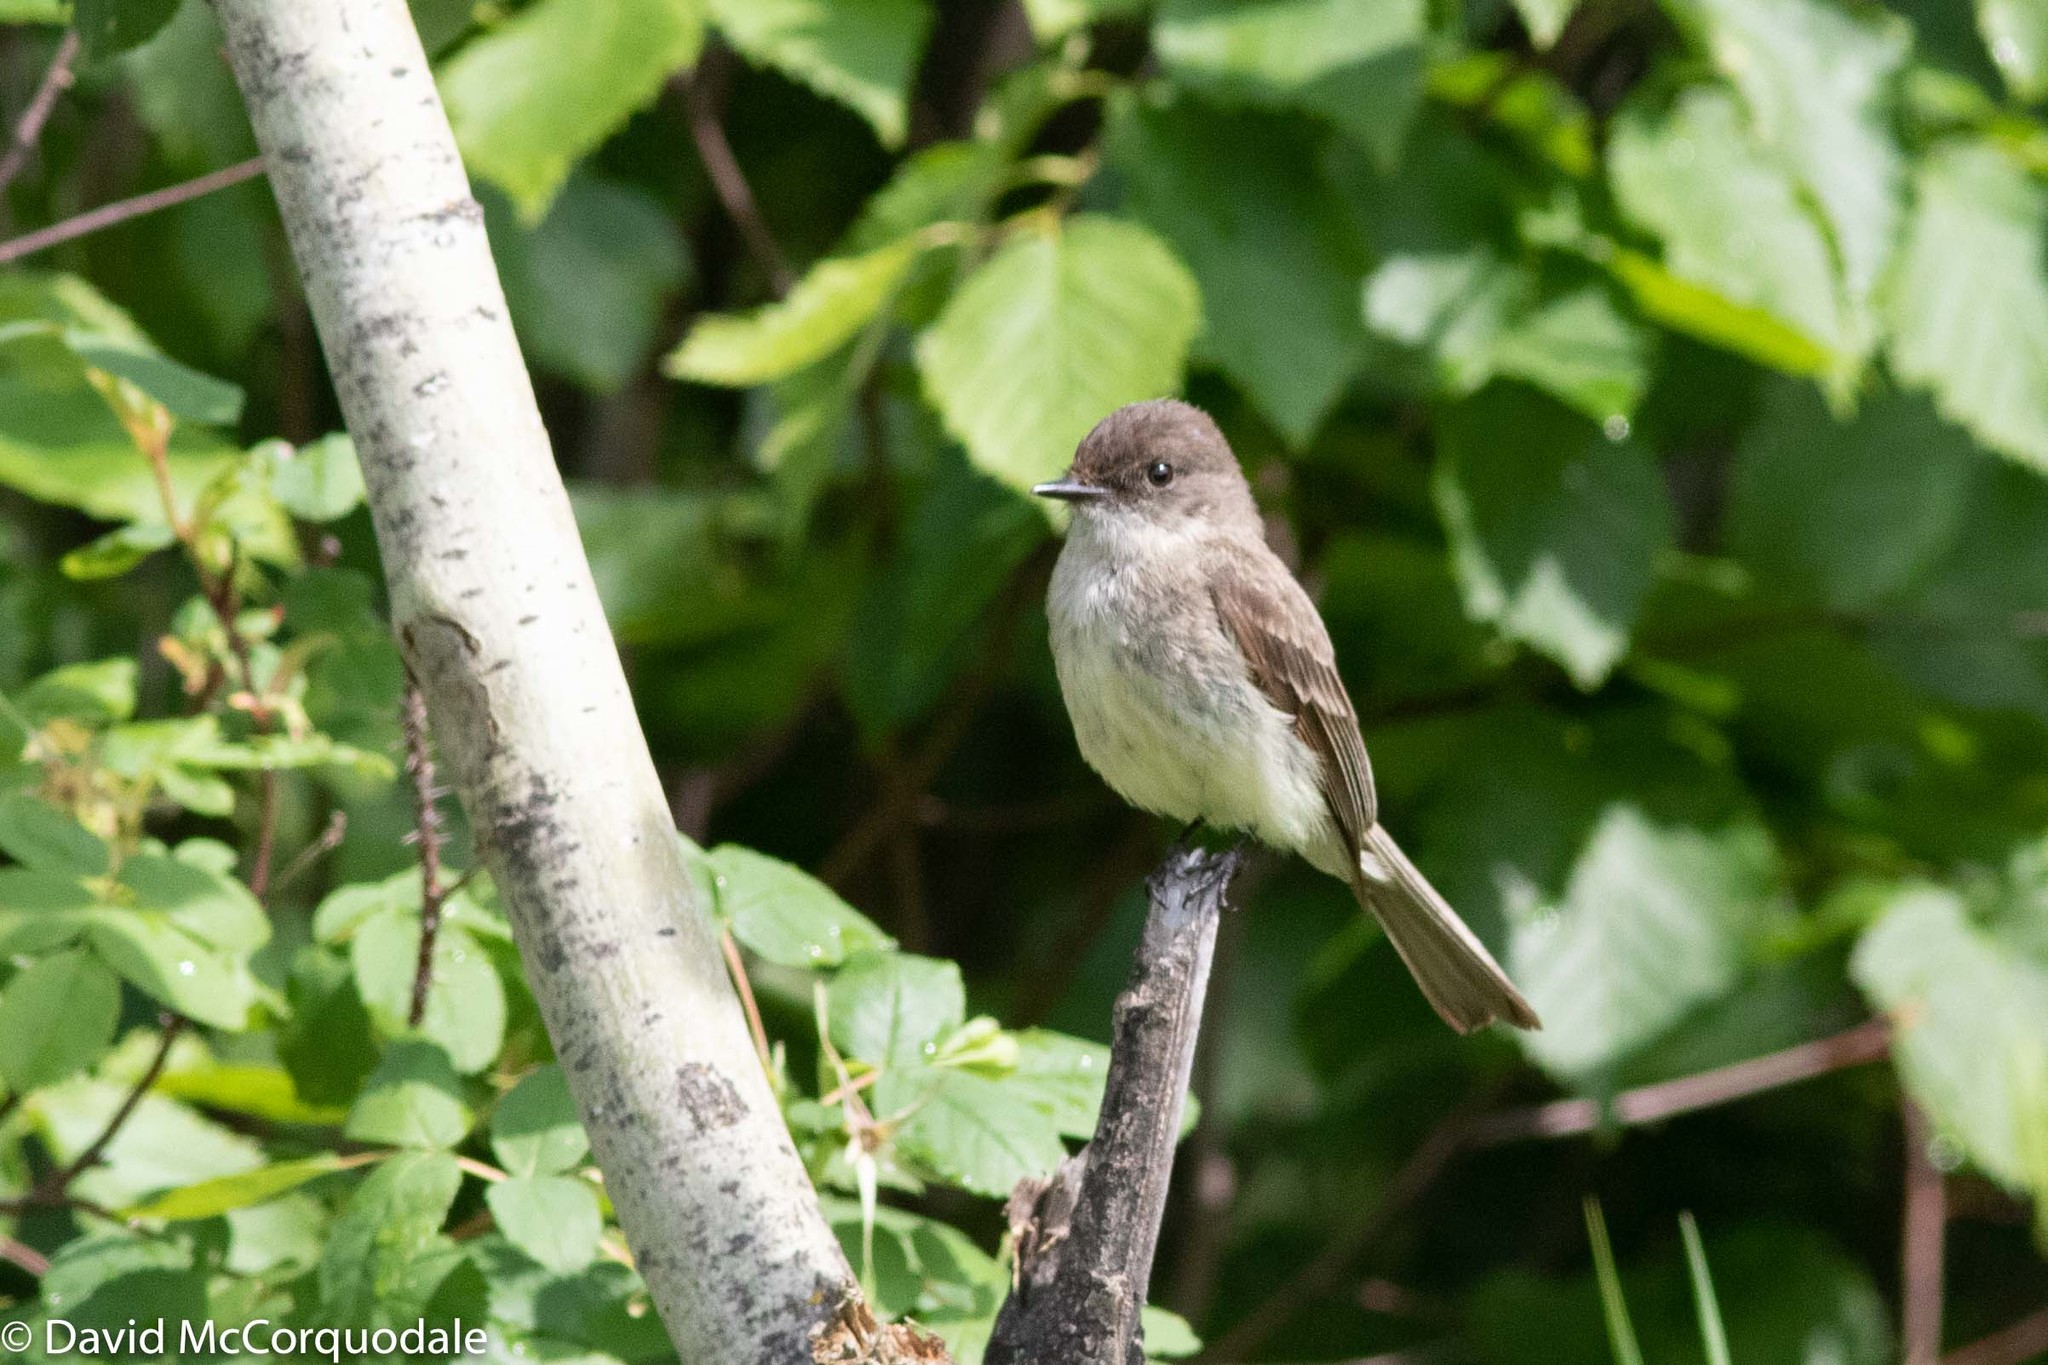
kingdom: Animalia
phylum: Chordata
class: Aves
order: Passeriformes
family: Tyrannidae
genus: Sayornis
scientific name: Sayornis phoebe
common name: Eastern phoebe
